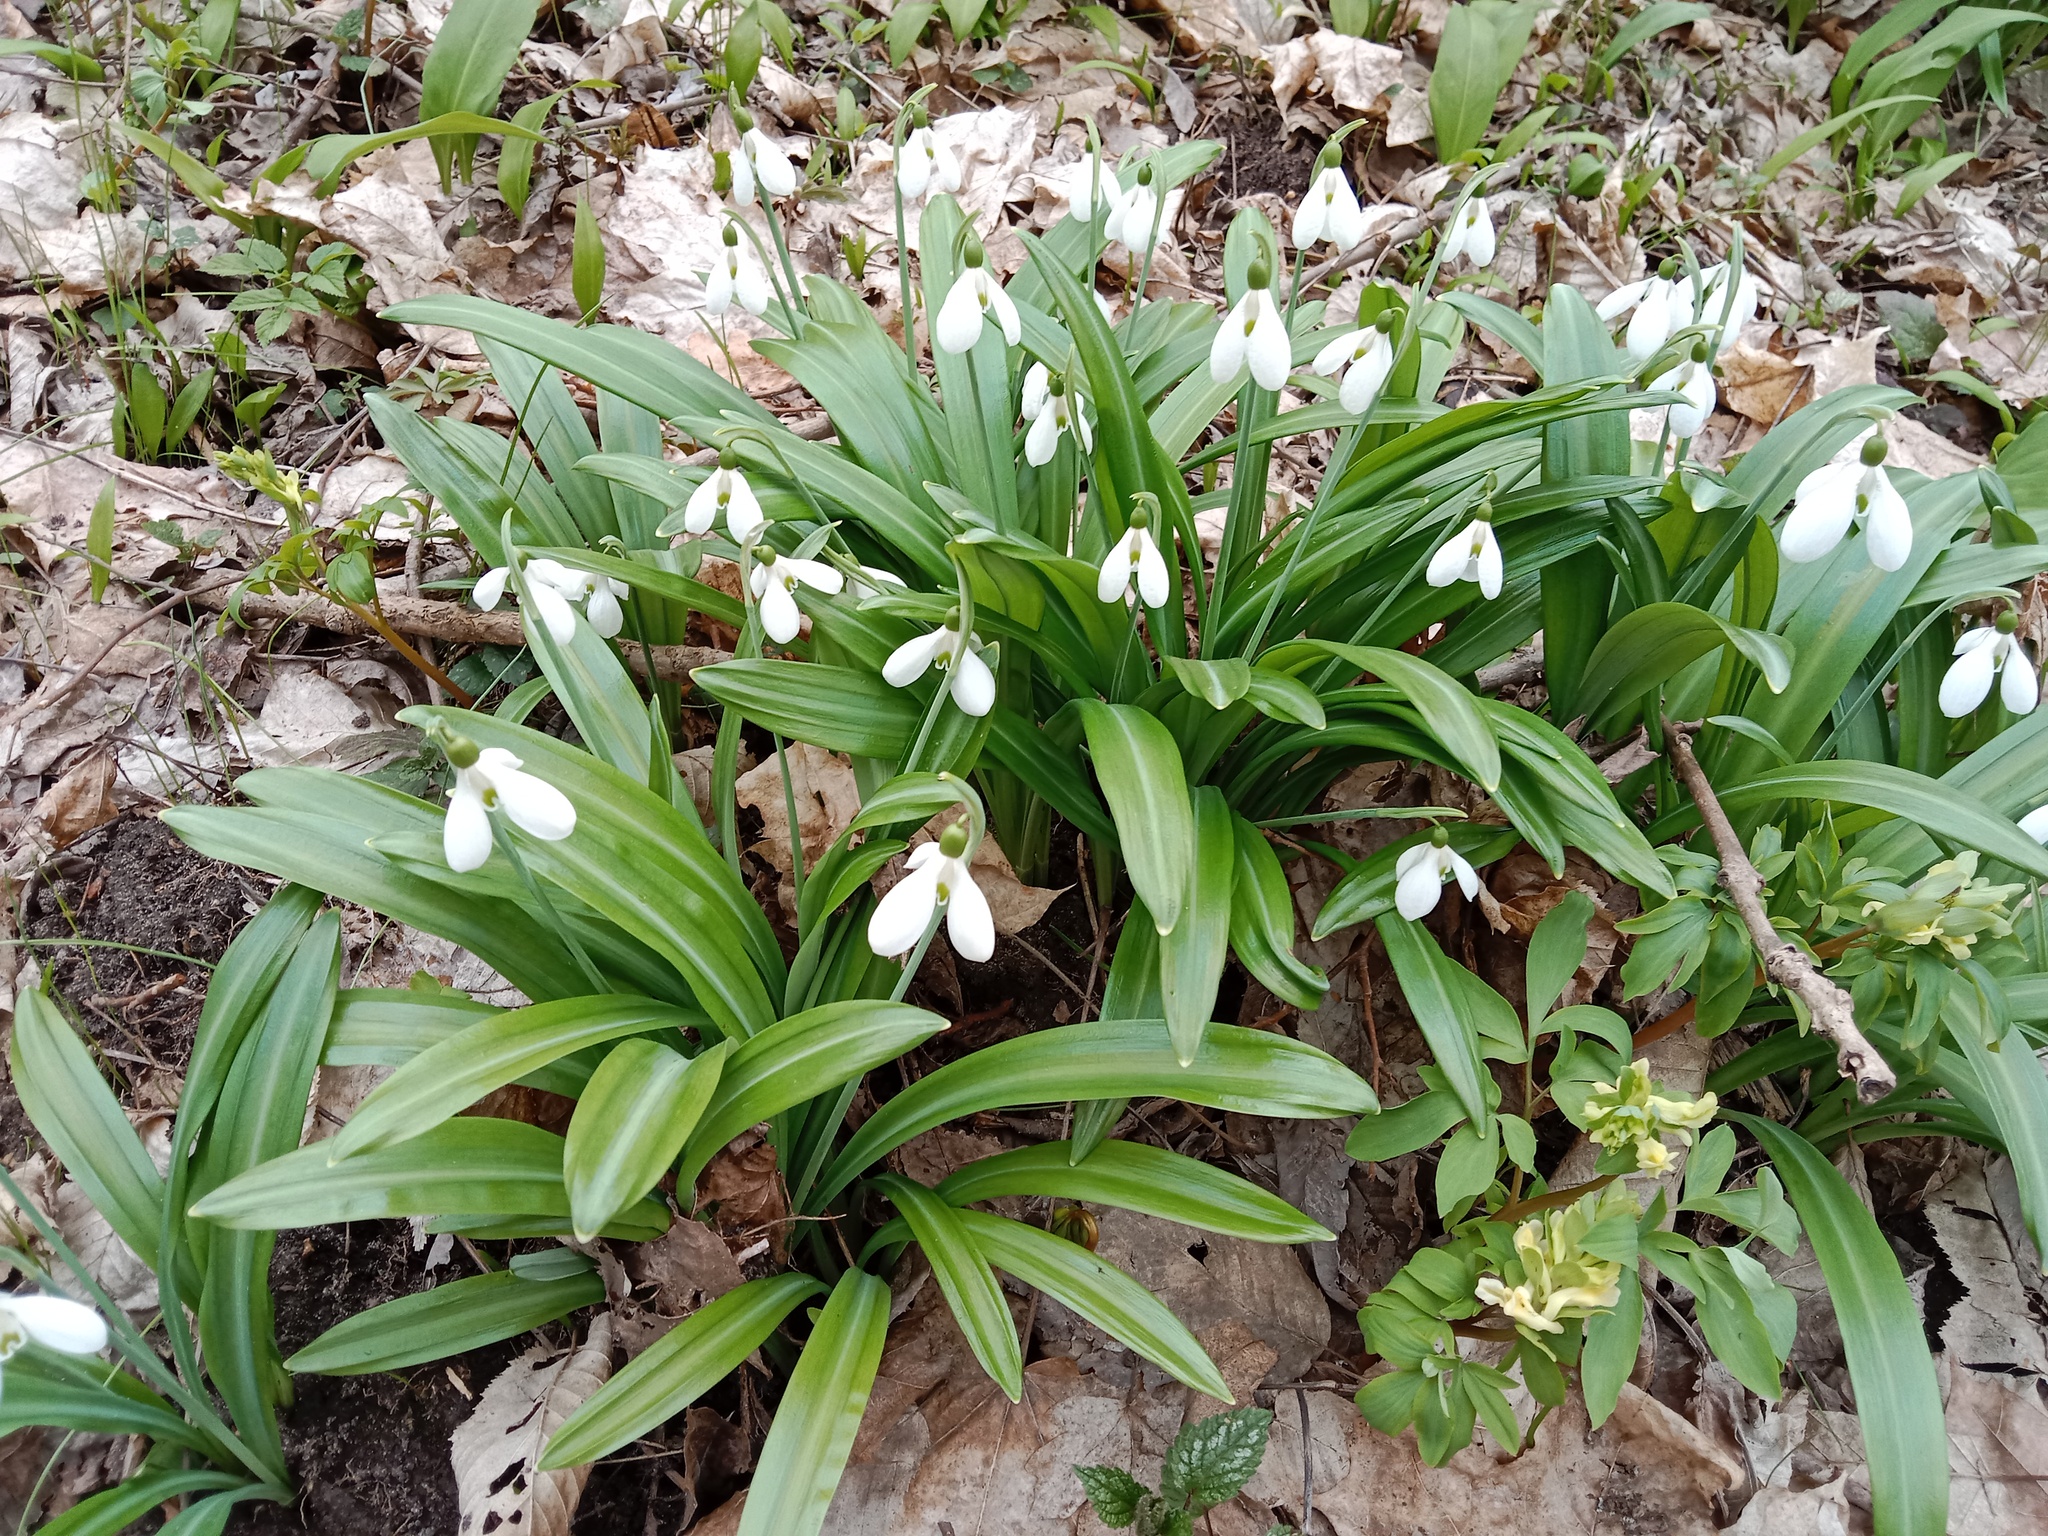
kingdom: Plantae
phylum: Tracheophyta
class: Liliopsida
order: Asparagales
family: Amaryllidaceae
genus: Galanthus
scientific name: Galanthus plicatus
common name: Pleated snowdrop
